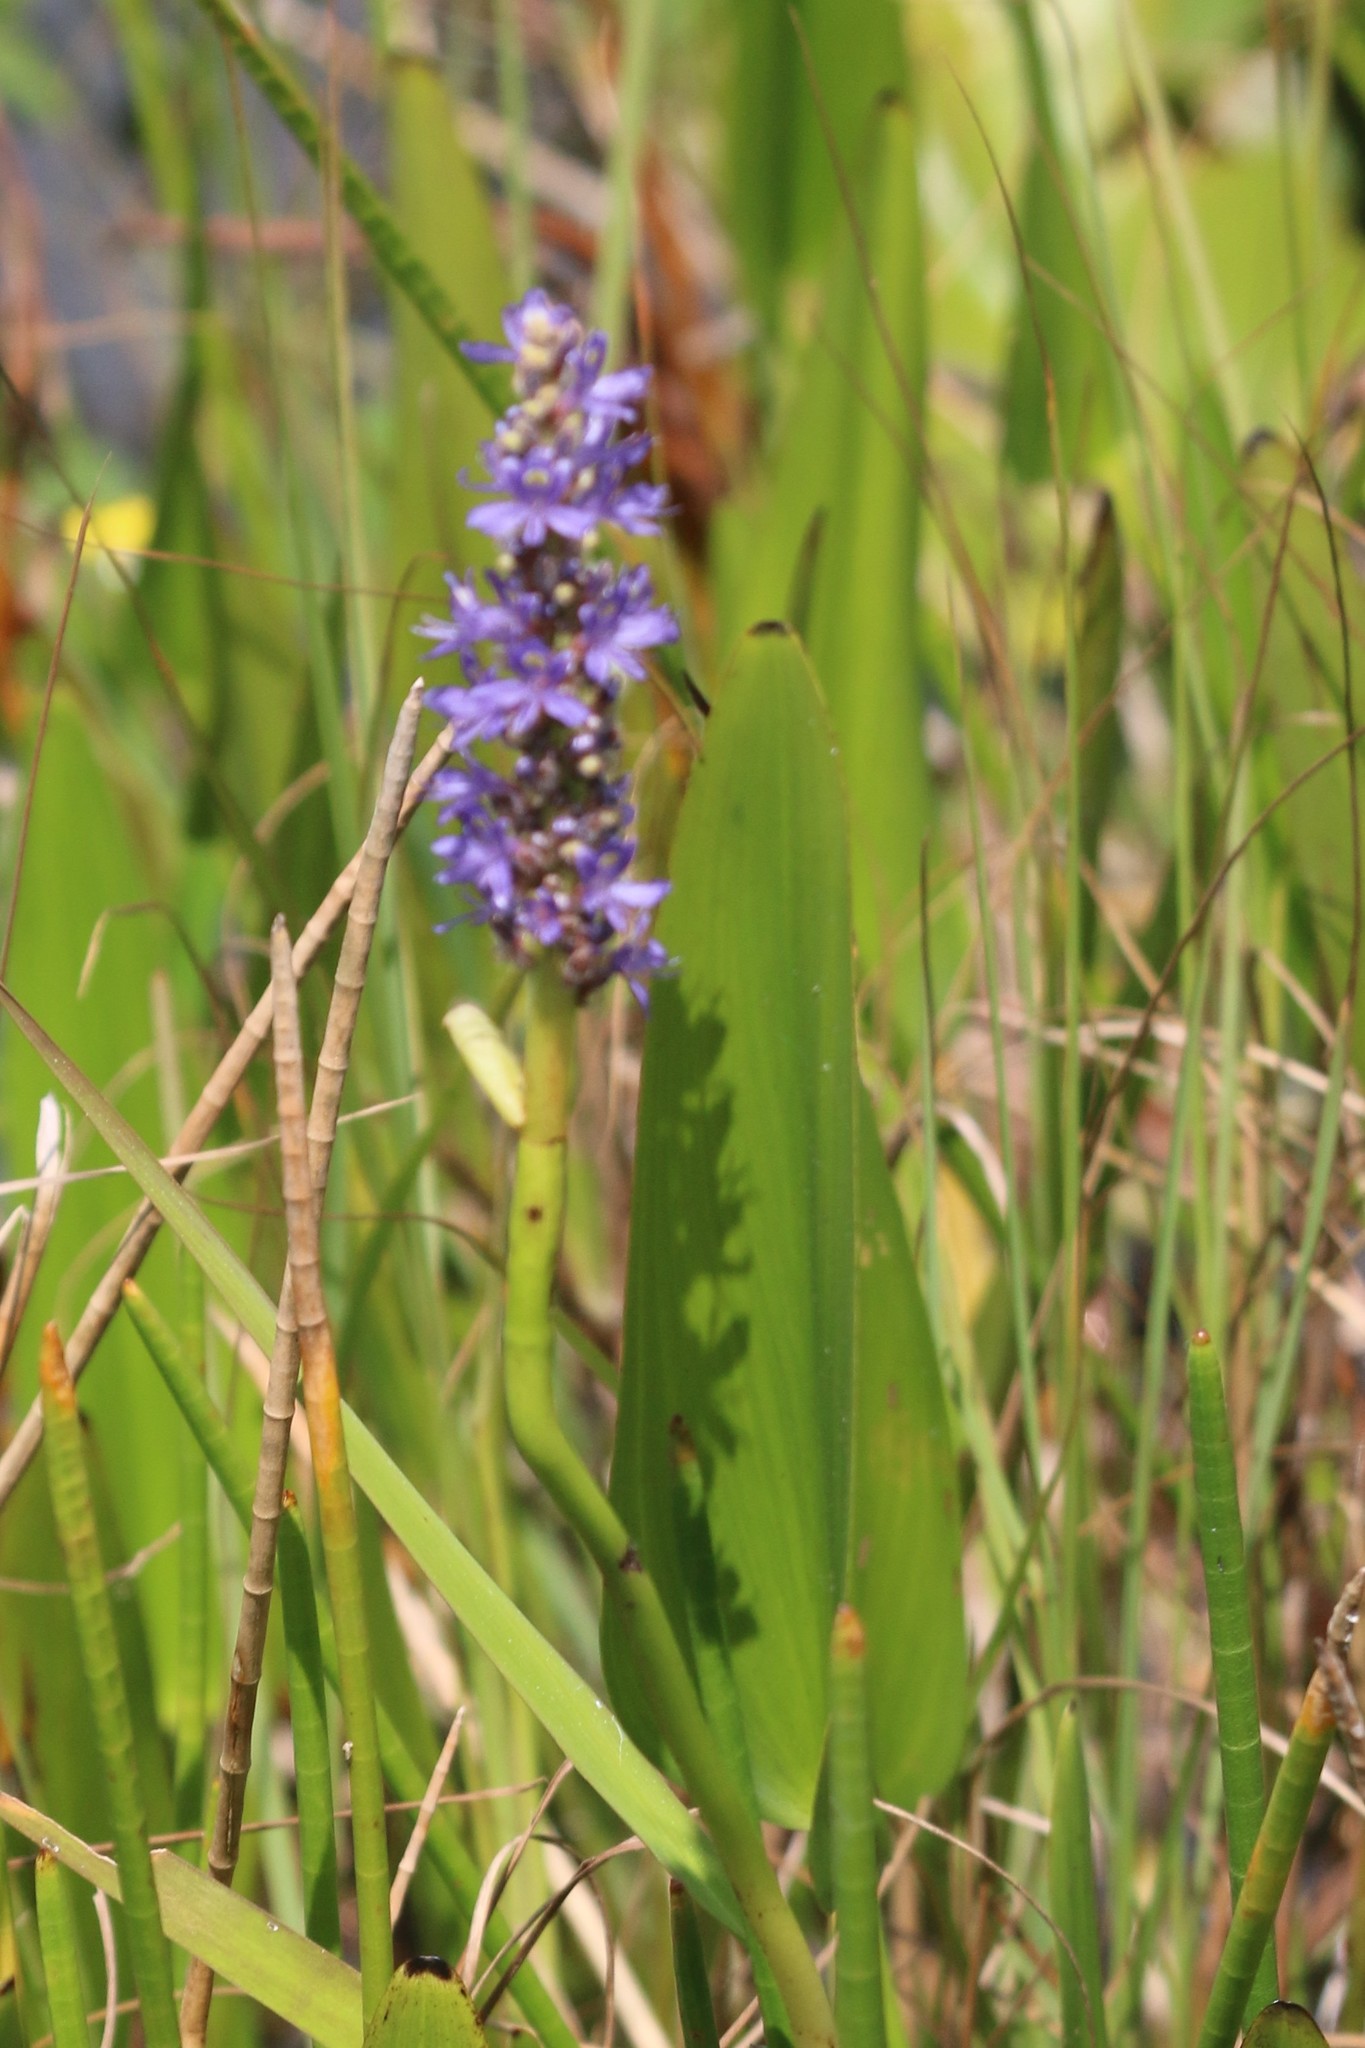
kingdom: Plantae
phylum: Tracheophyta
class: Liliopsida
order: Commelinales
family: Pontederiaceae
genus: Pontederia
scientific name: Pontederia cordata
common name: Pickerelweed
